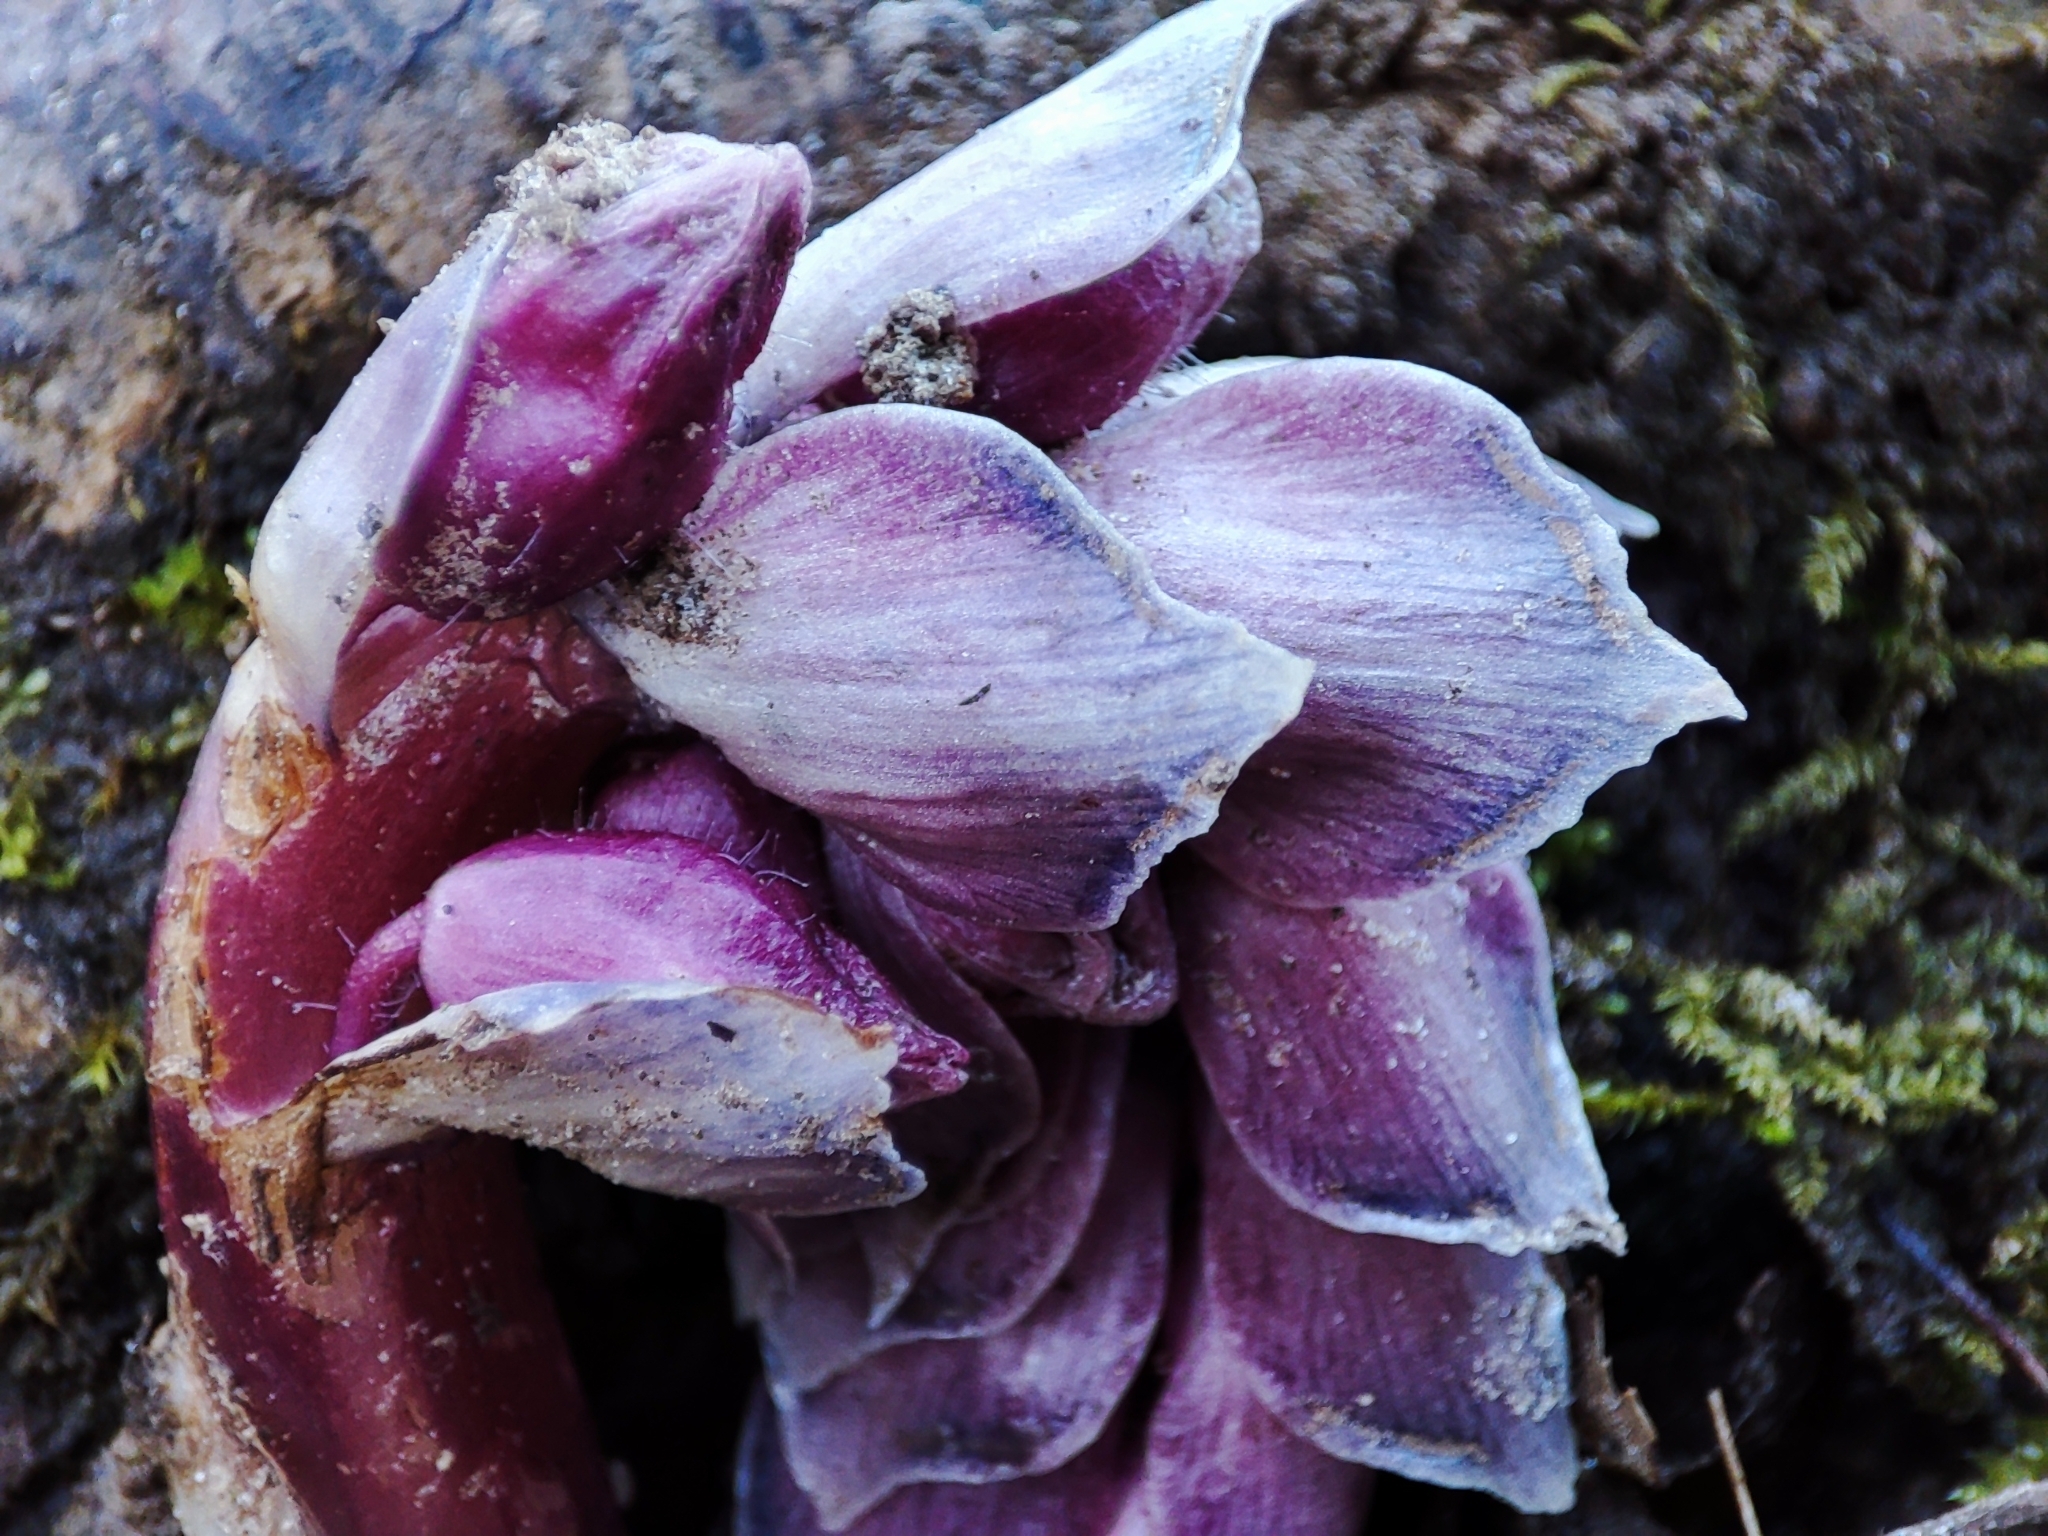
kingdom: Plantae
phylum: Tracheophyta
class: Magnoliopsida
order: Lamiales
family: Orobanchaceae
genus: Lathraea
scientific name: Lathraea squamaria
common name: Toothwort
